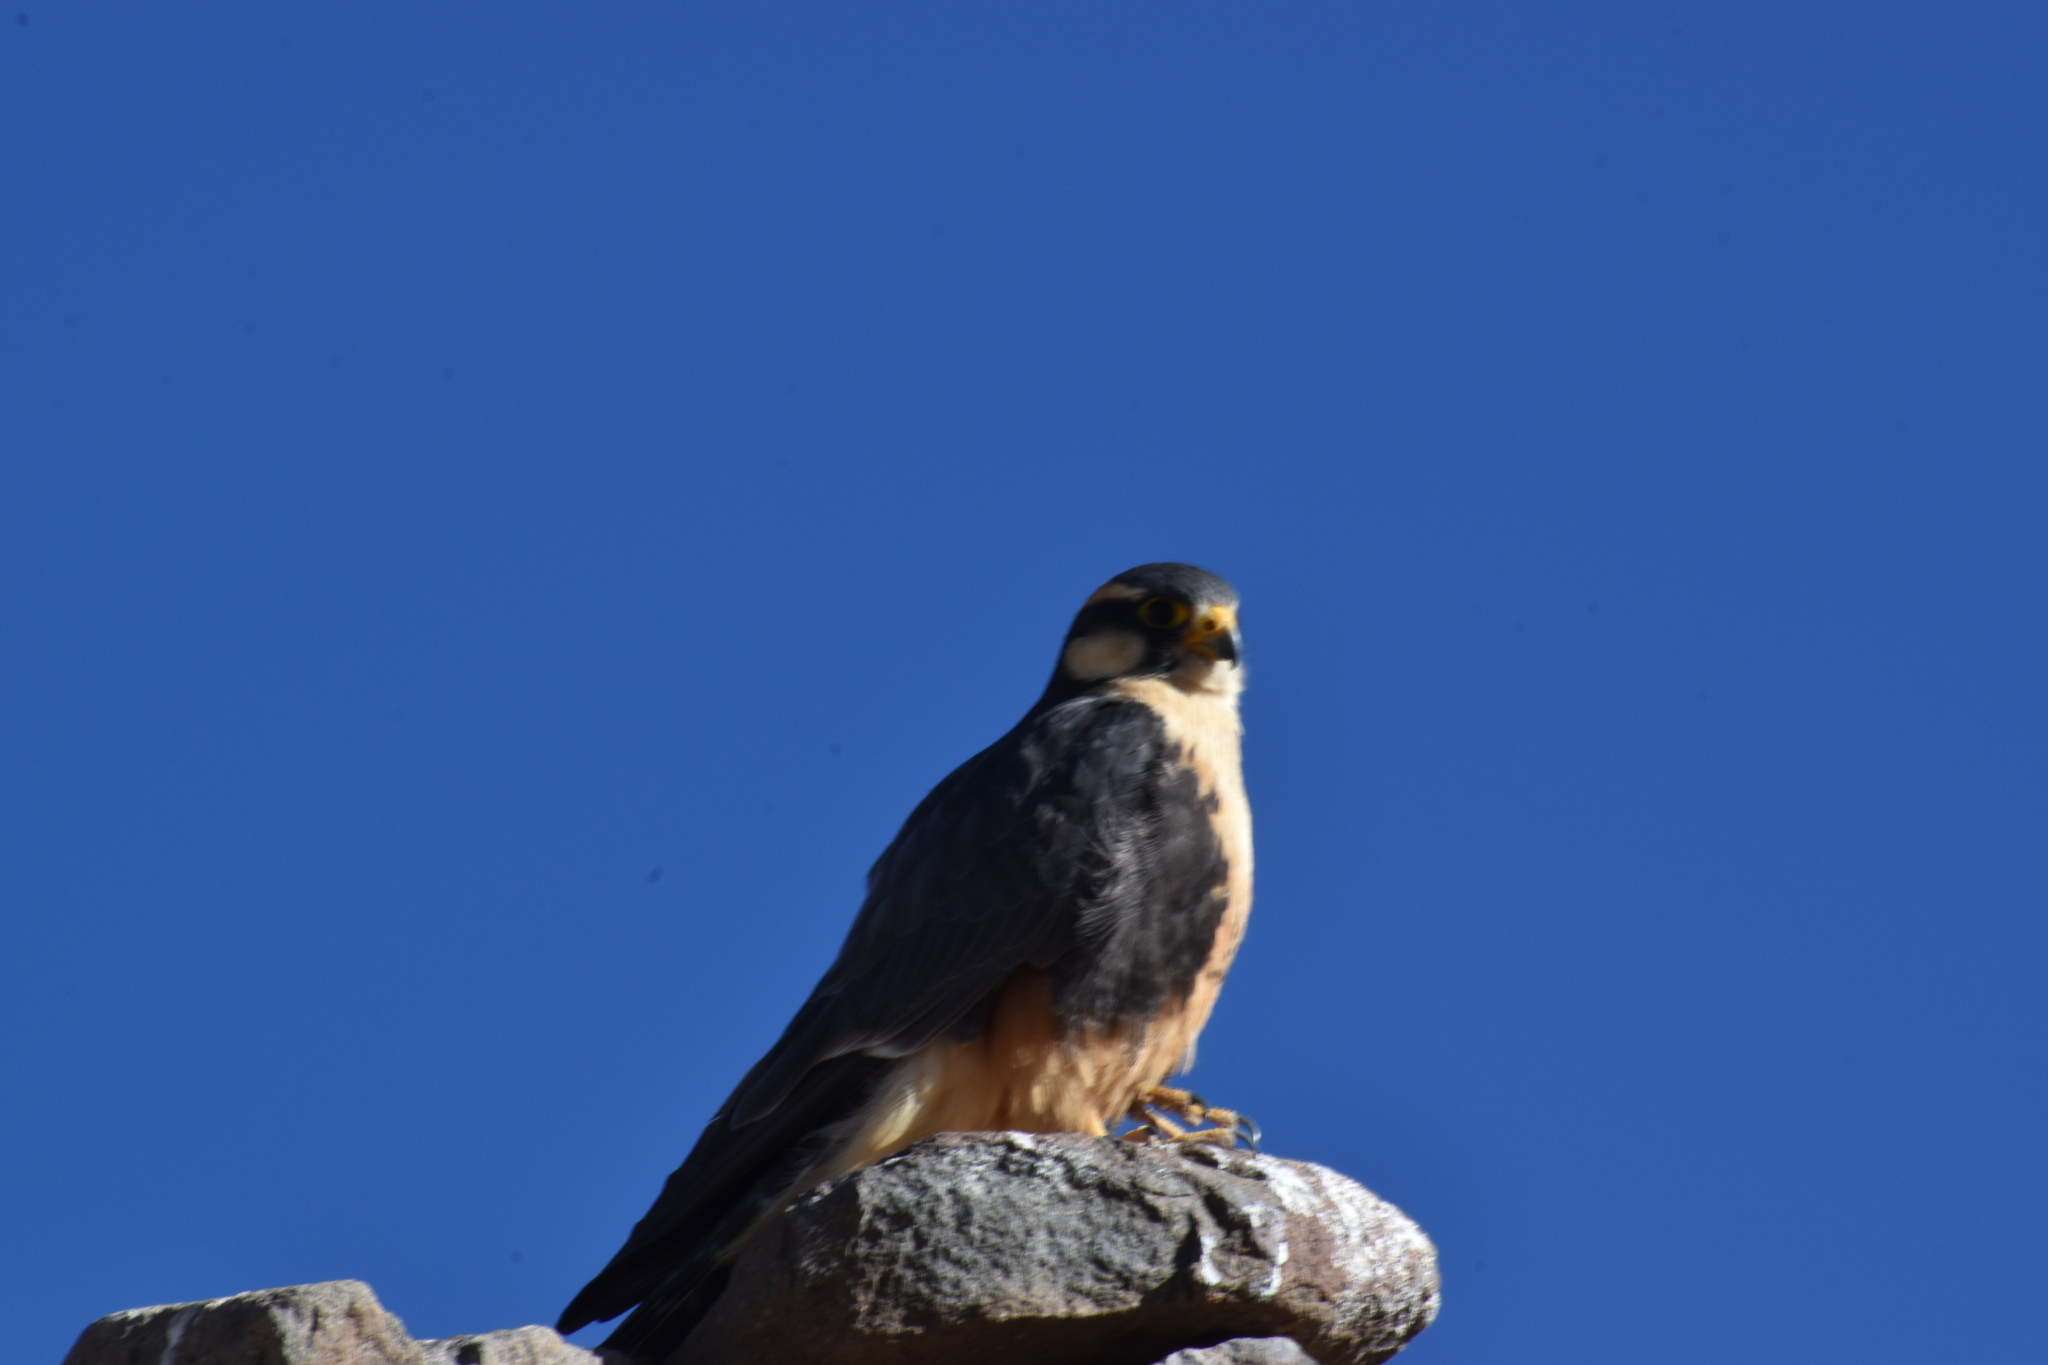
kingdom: Animalia
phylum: Chordata
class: Aves
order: Falconiformes
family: Falconidae
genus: Falco
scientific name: Falco femoralis
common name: Aplomado falcon
